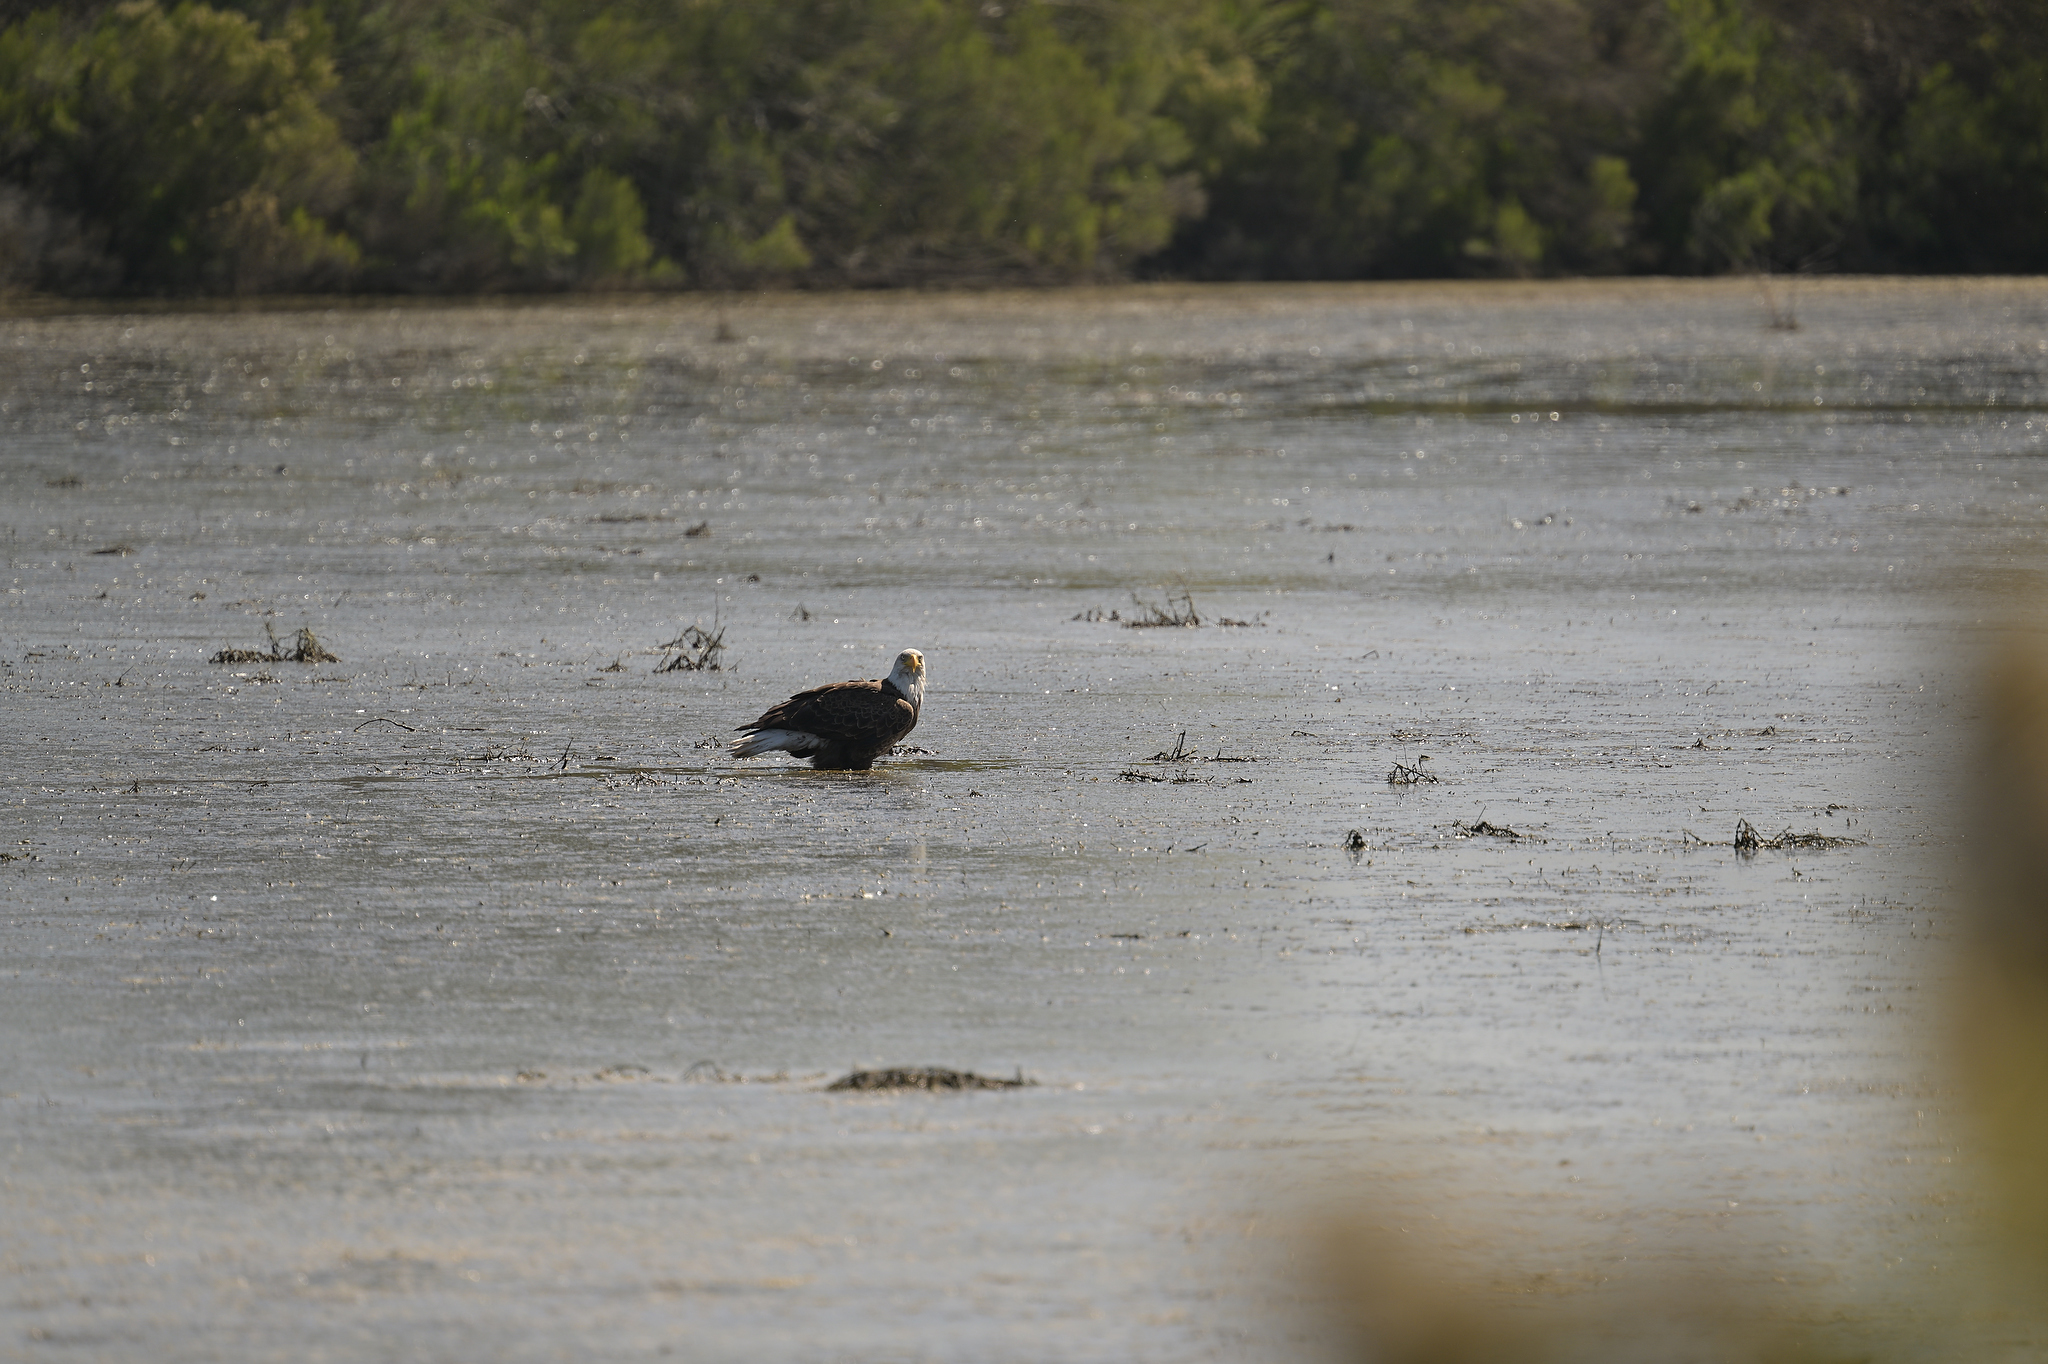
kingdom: Animalia
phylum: Chordata
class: Aves
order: Accipitriformes
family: Accipitridae
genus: Haliaeetus
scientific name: Haliaeetus leucocephalus
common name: Bald eagle
